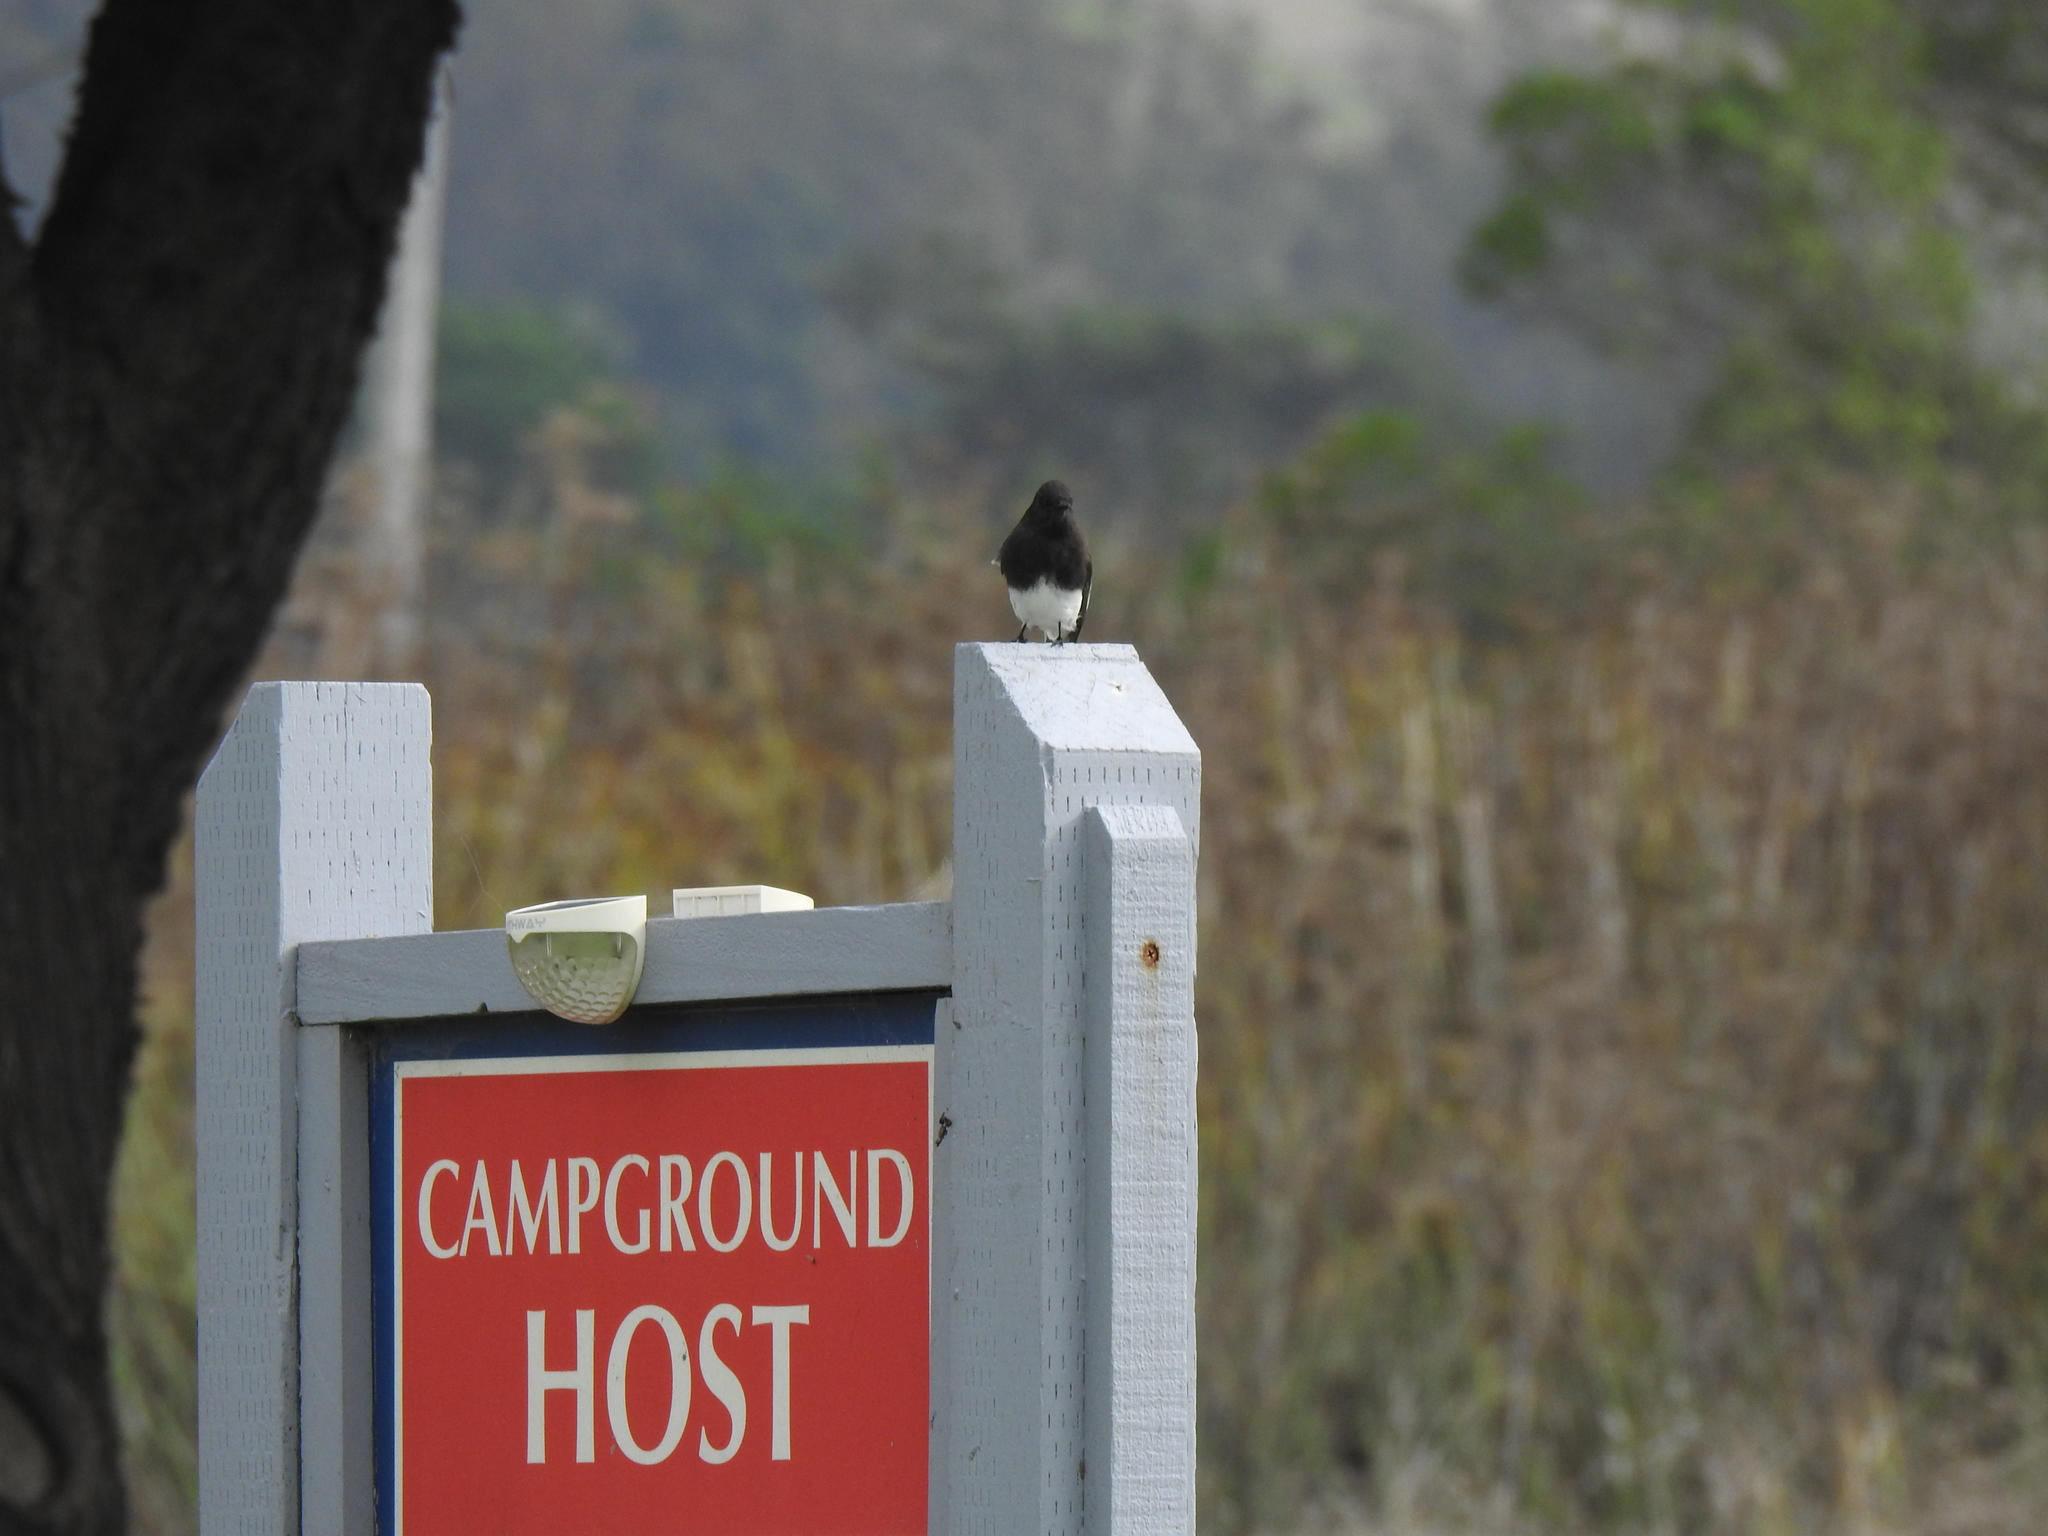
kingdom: Animalia
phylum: Chordata
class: Aves
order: Passeriformes
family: Tyrannidae
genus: Sayornis
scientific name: Sayornis nigricans
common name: Black phoebe
